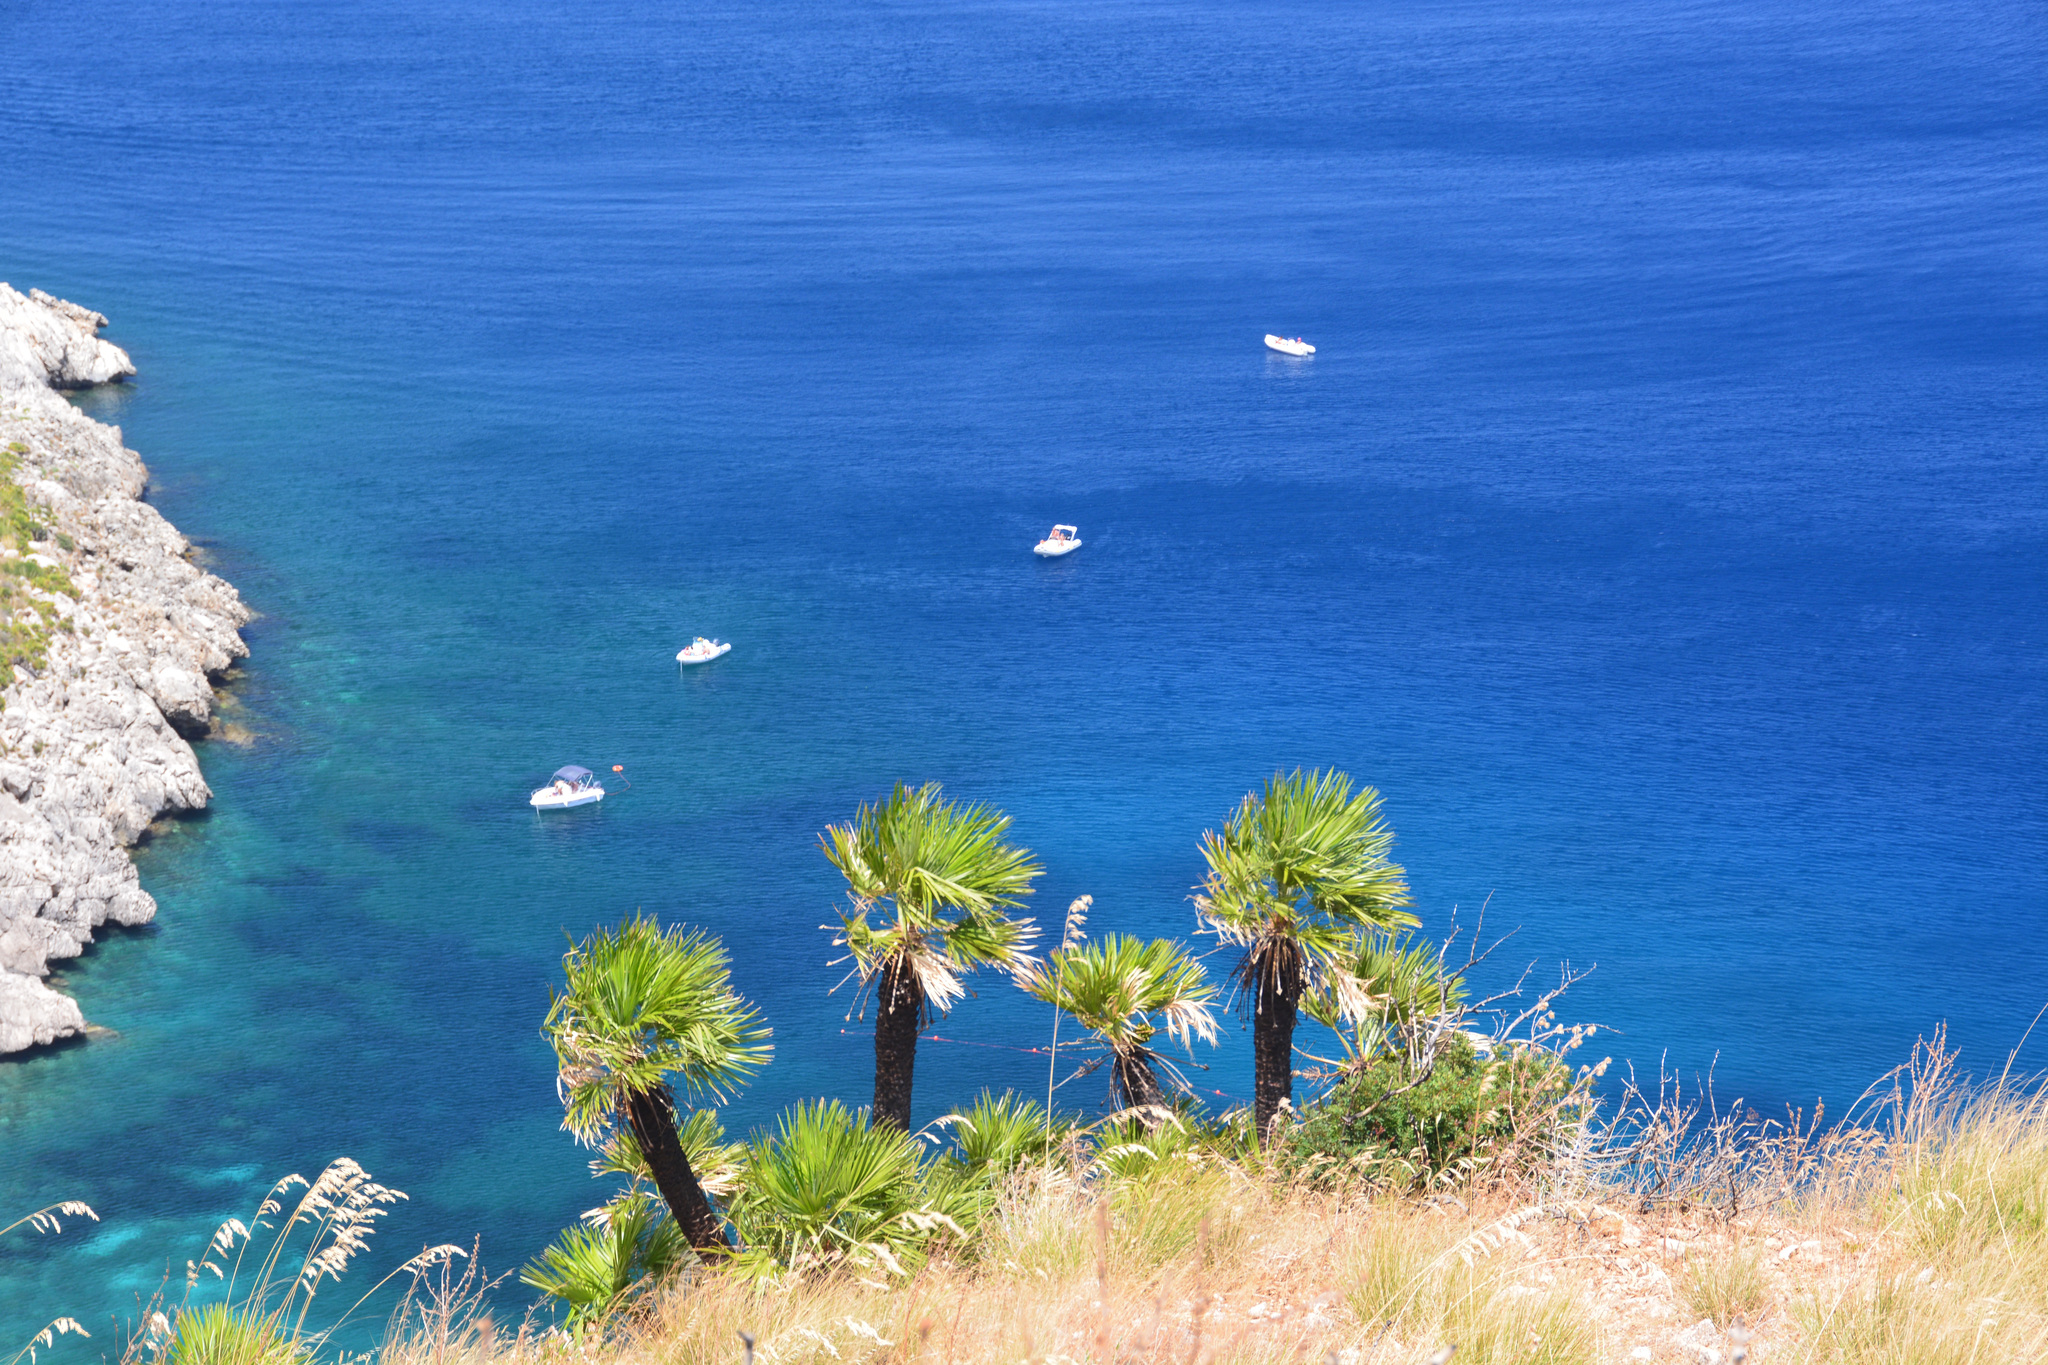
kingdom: Plantae
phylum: Tracheophyta
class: Liliopsida
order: Arecales
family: Arecaceae
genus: Chamaerops
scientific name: Chamaerops humilis
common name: Dwarf fan palm
